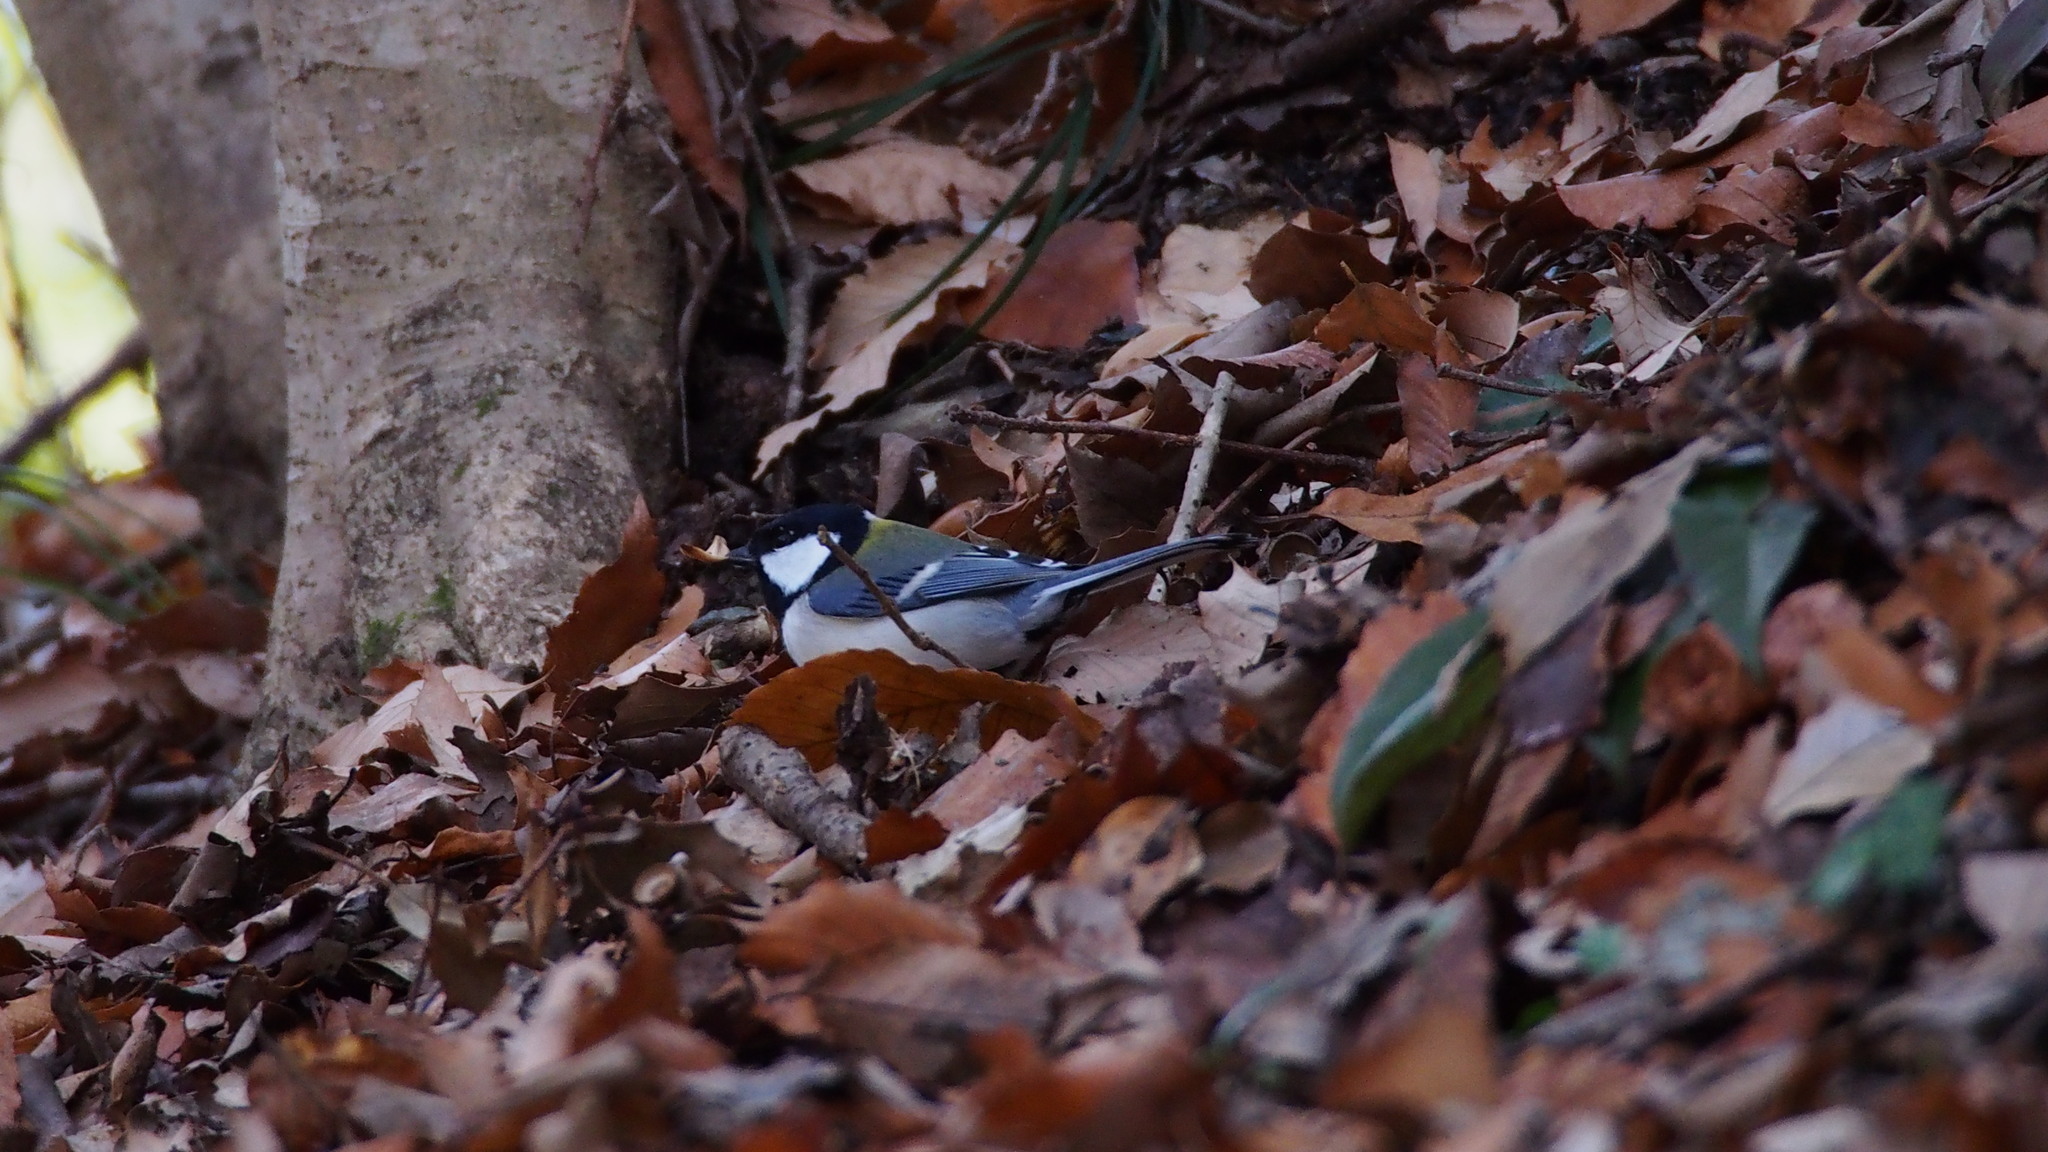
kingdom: Animalia
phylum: Chordata
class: Aves
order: Passeriformes
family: Paridae
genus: Parus
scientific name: Parus minor
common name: Japanese tit
